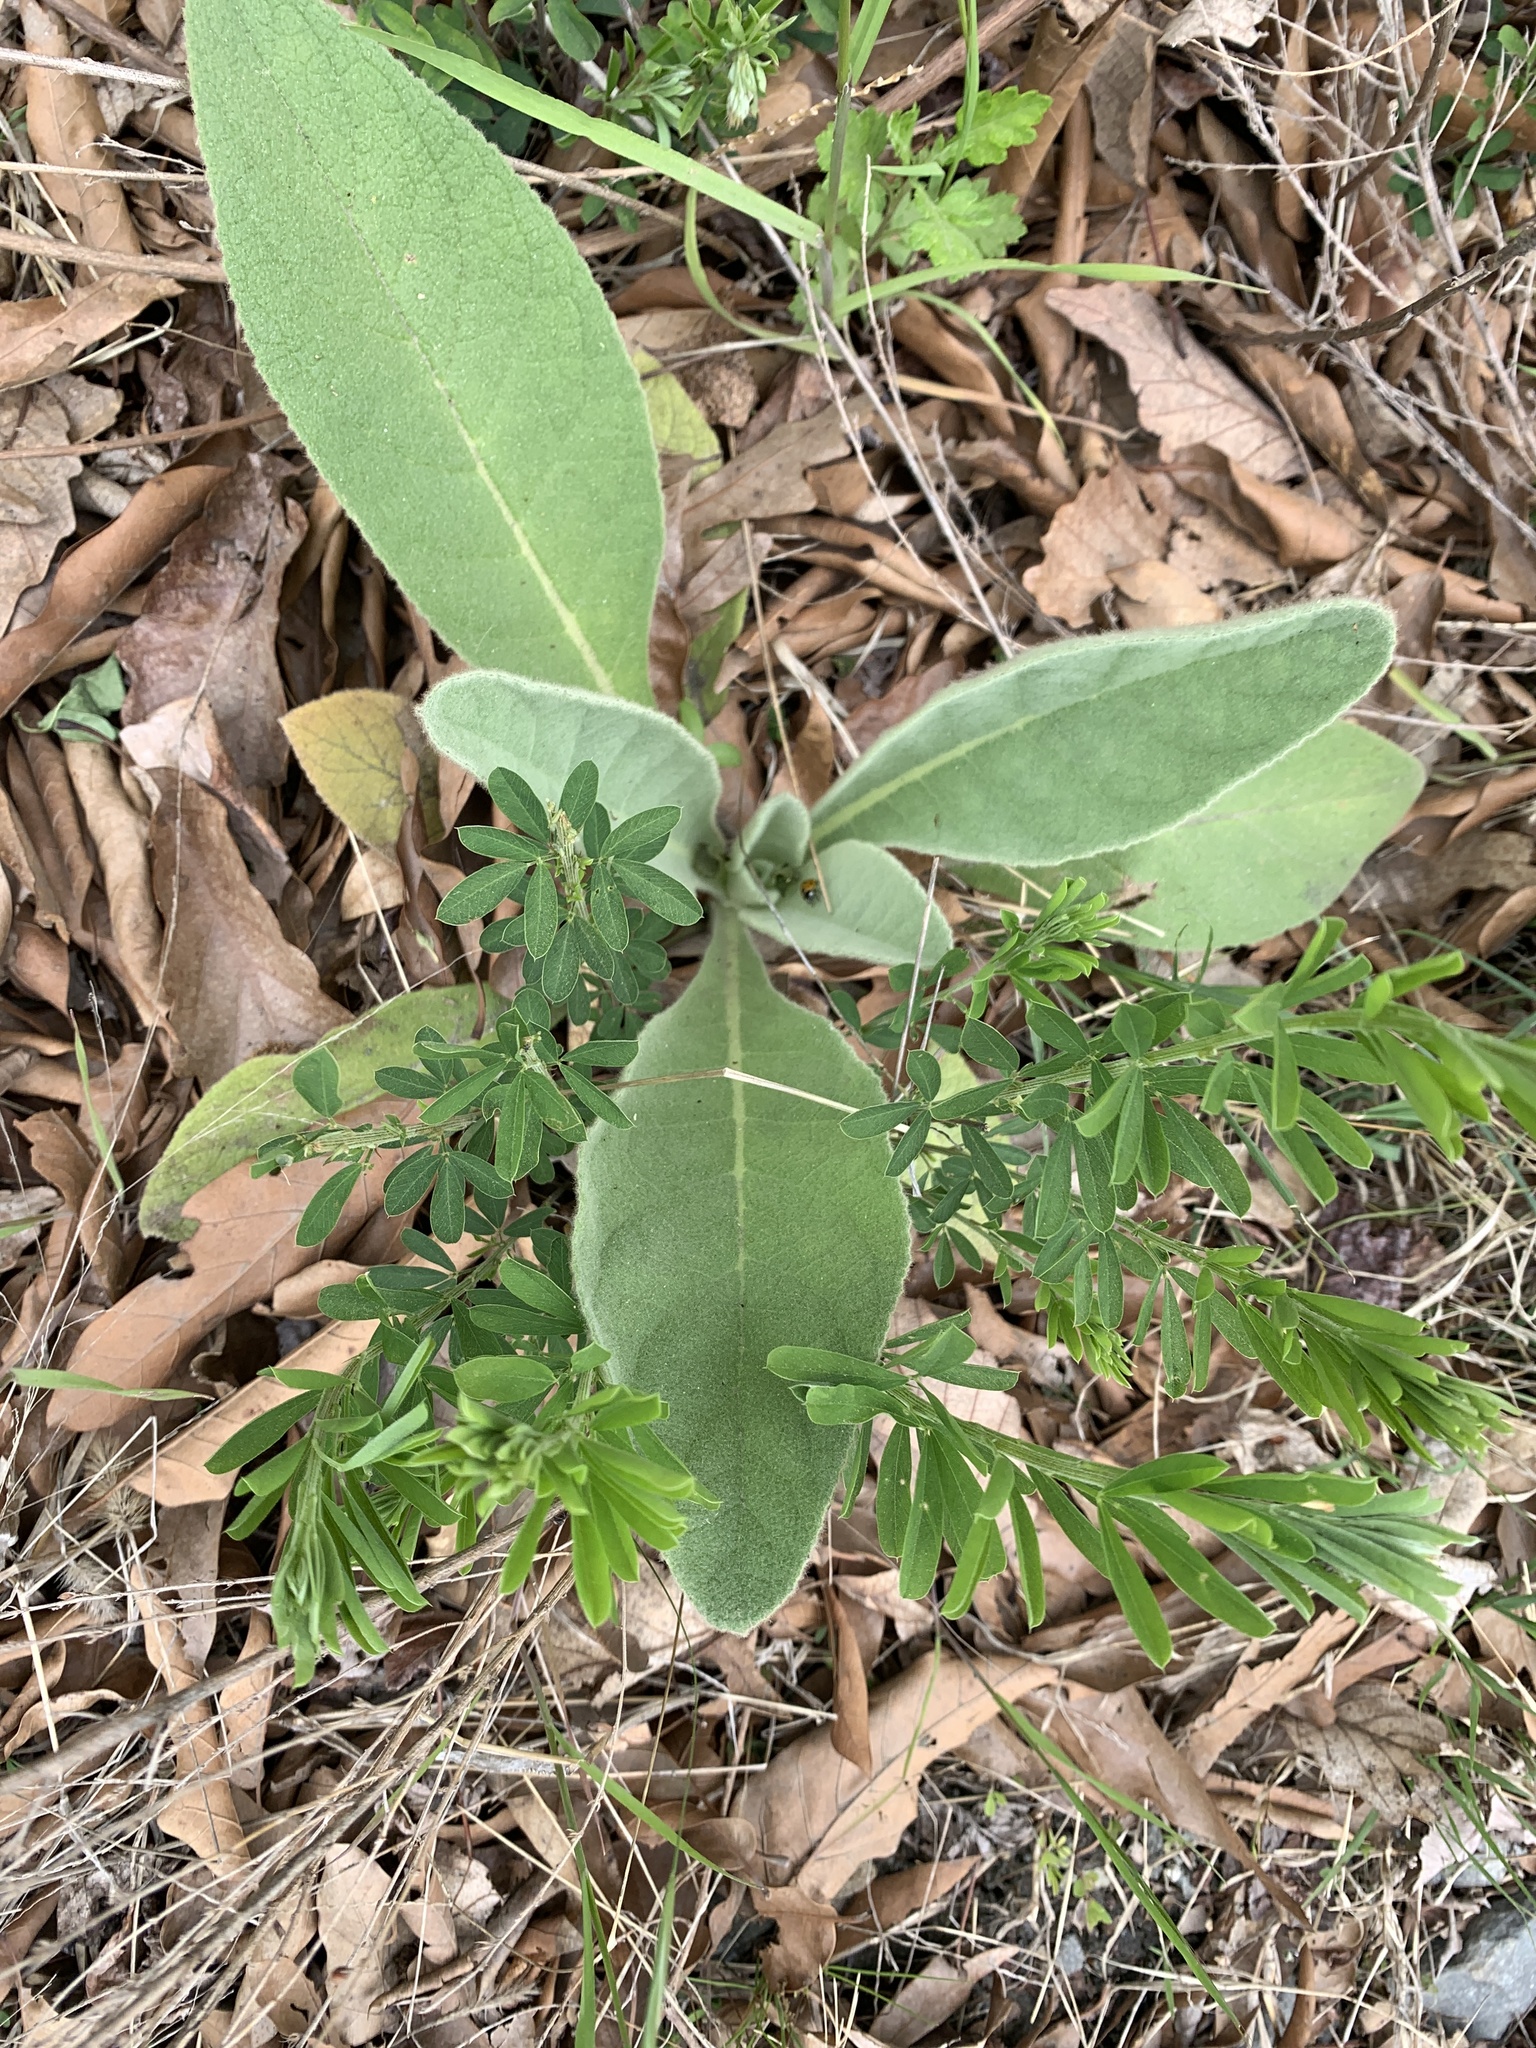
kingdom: Plantae
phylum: Tracheophyta
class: Magnoliopsida
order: Lamiales
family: Scrophulariaceae
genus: Verbascum
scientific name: Verbascum thapsus
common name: Common mullein
